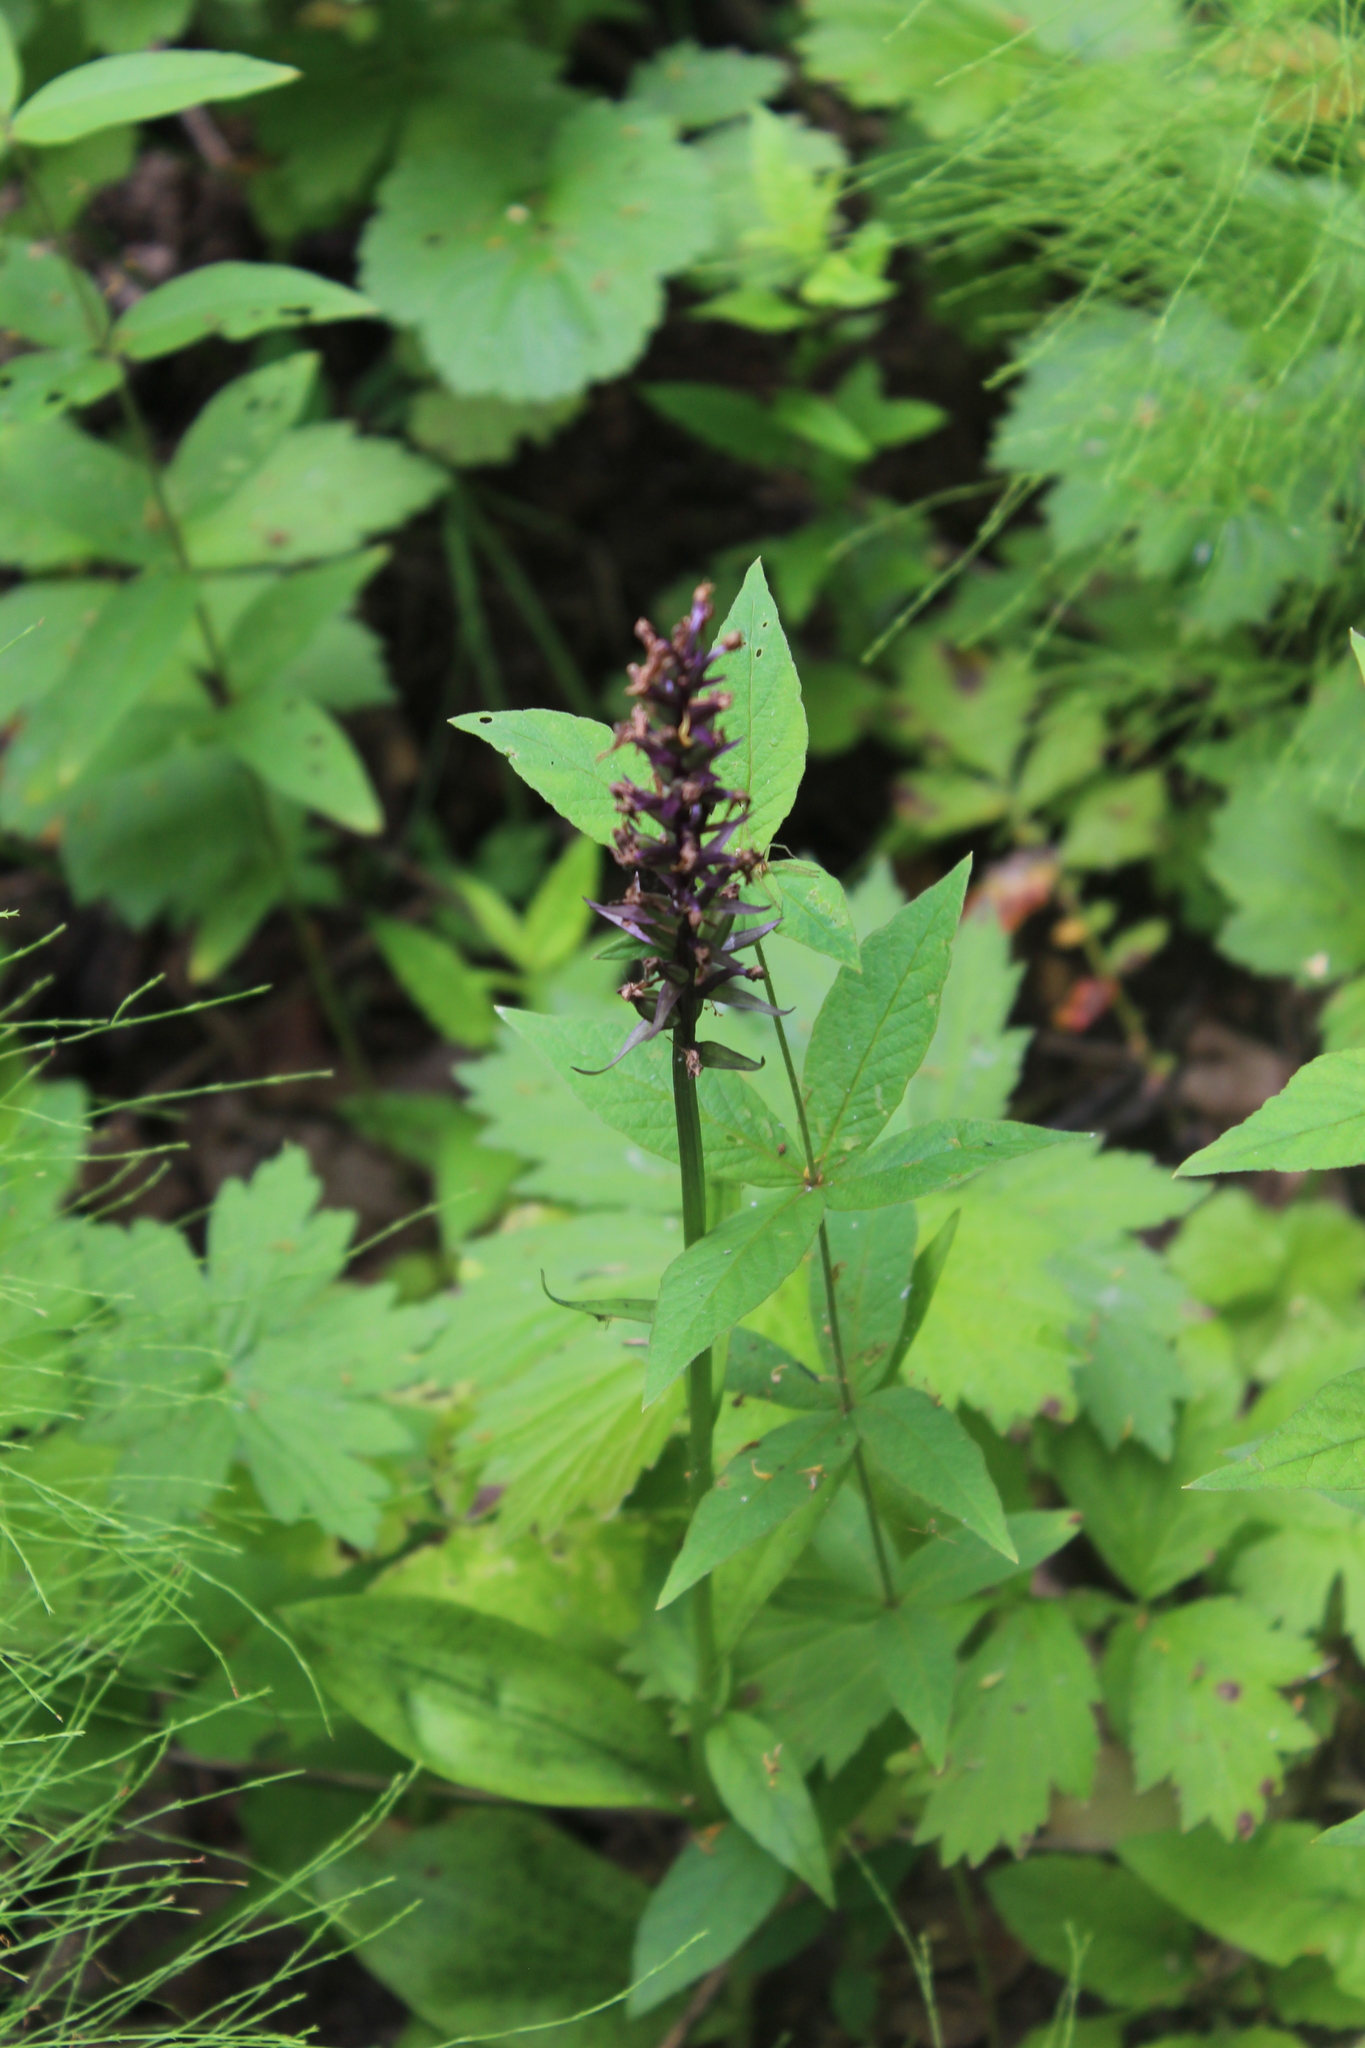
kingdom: Plantae
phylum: Tracheophyta
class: Liliopsida
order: Asparagales
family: Orchidaceae
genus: Dactylorhiza
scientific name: Dactylorhiza maculata
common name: Heath spotted-orchid
